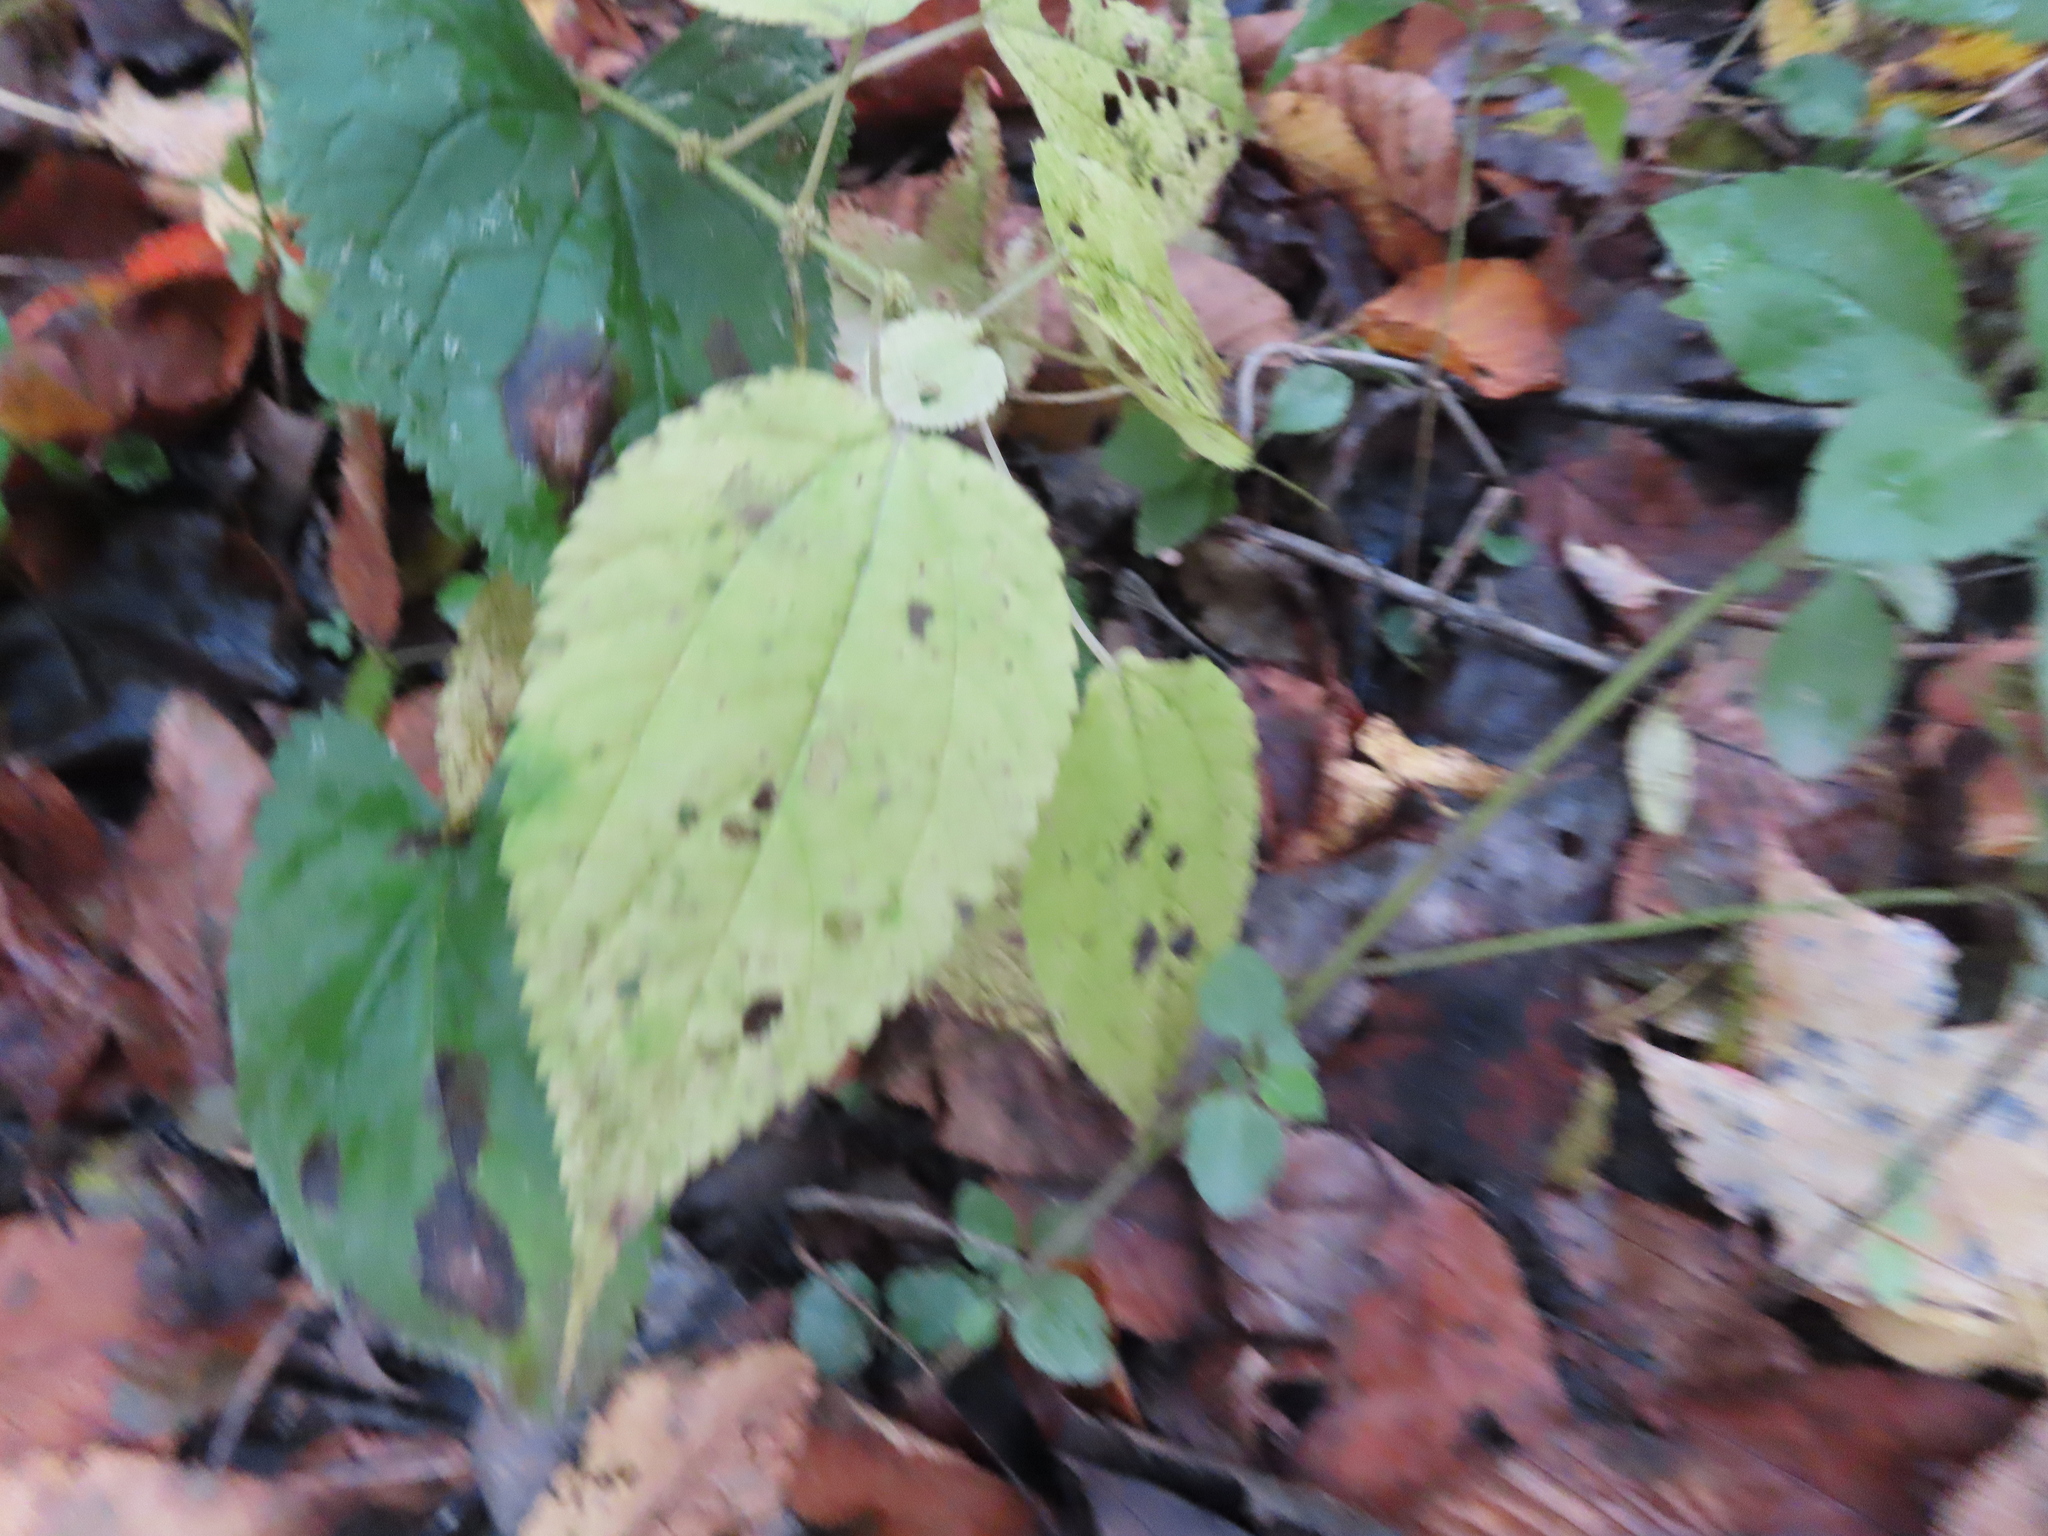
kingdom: Plantae
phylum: Tracheophyta
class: Magnoliopsida
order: Rosales
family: Urticaceae
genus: Pilea
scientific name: Pilea pumila
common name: Clearweed
